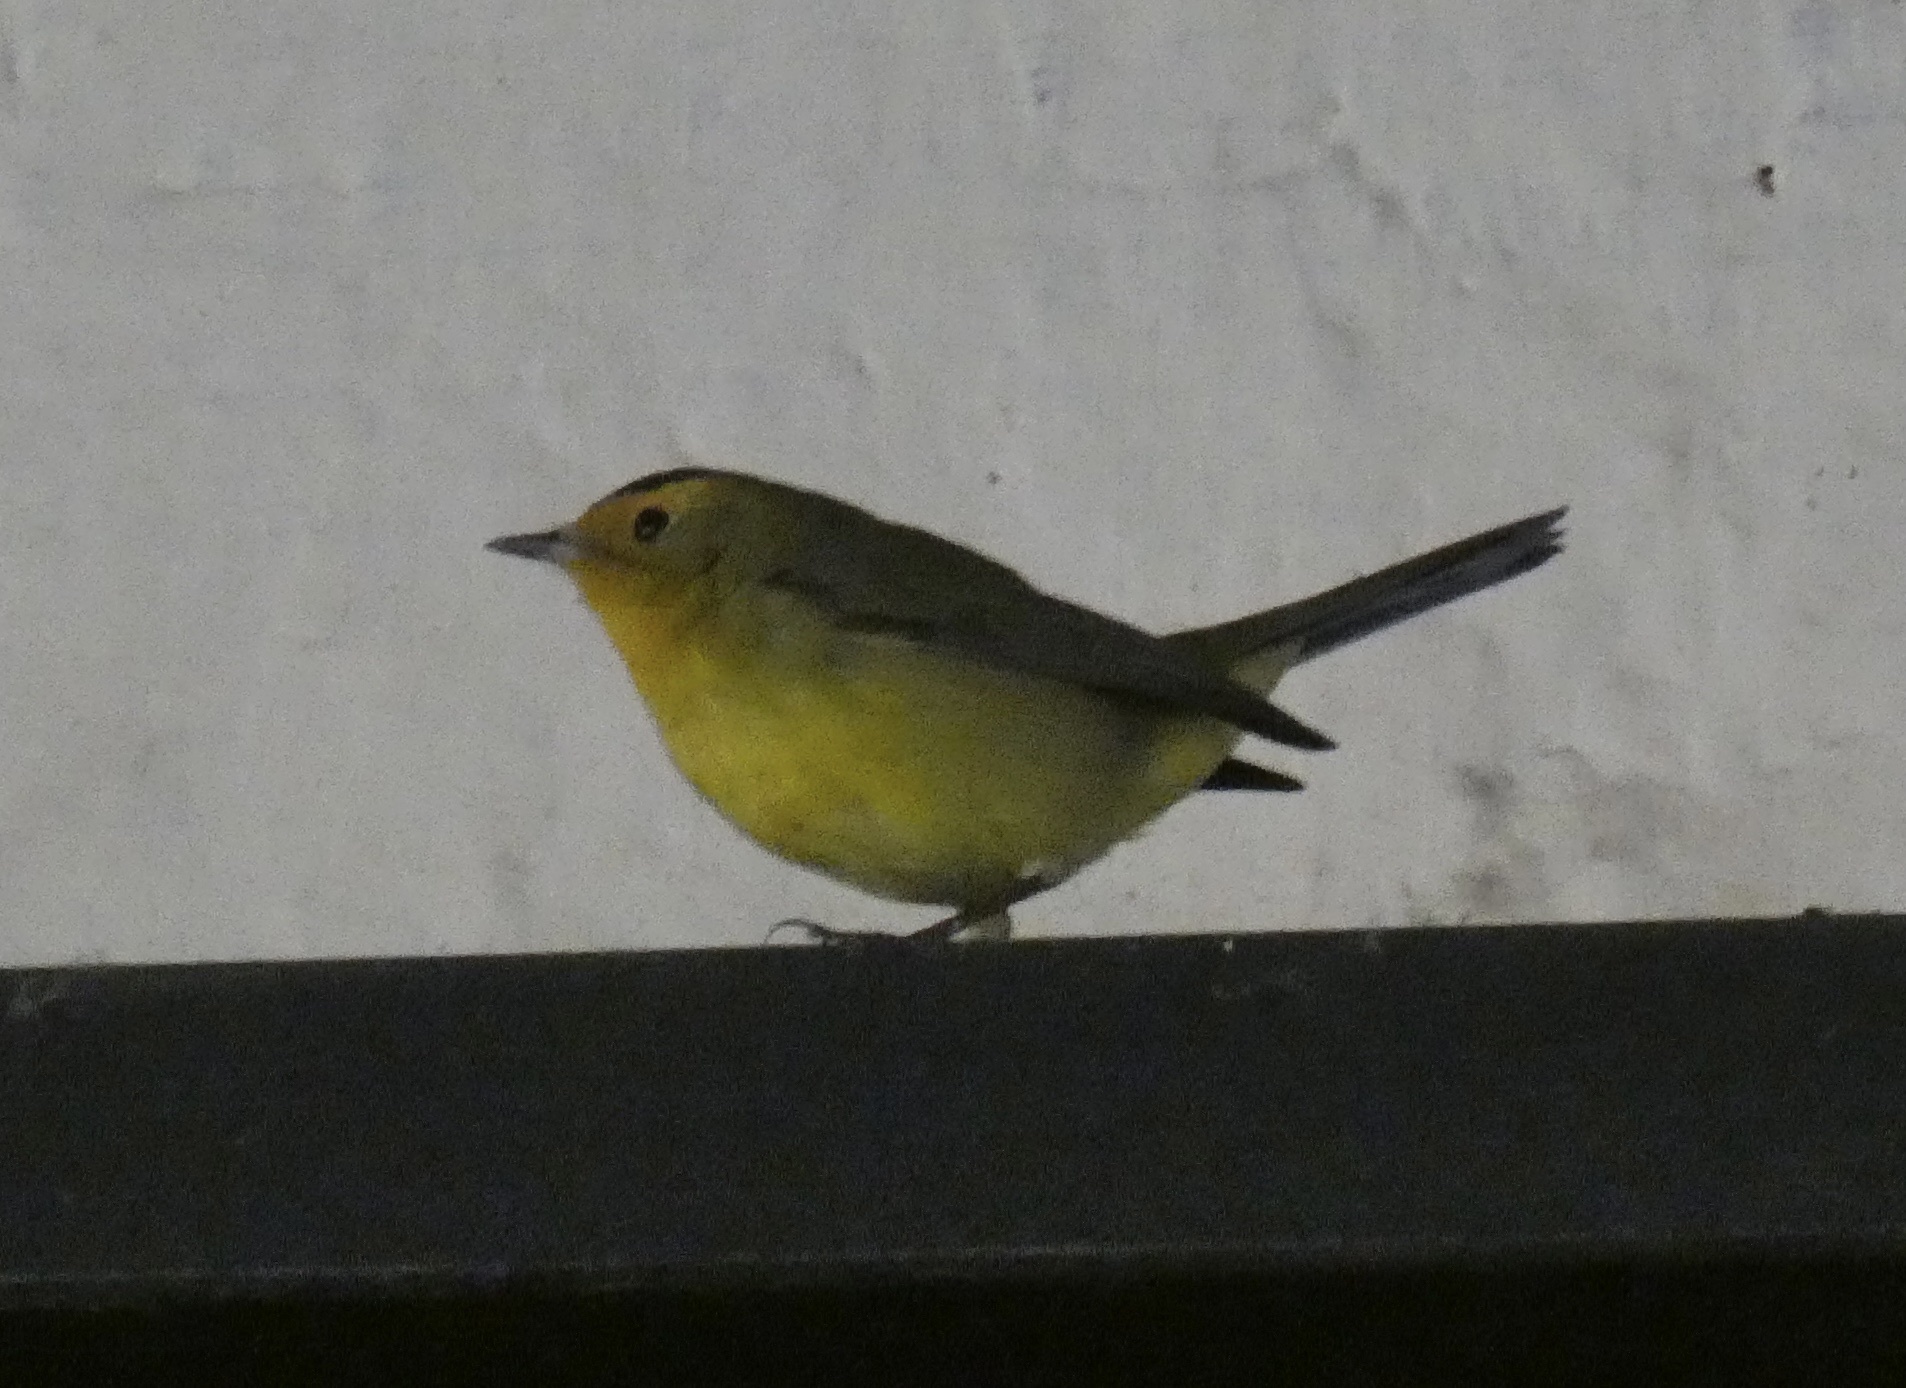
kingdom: Animalia
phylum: Chordata
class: Aves
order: Passeriformes
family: Parulidae
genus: Cardellina
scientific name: Cardellina pusilla
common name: Wilson's warbler
